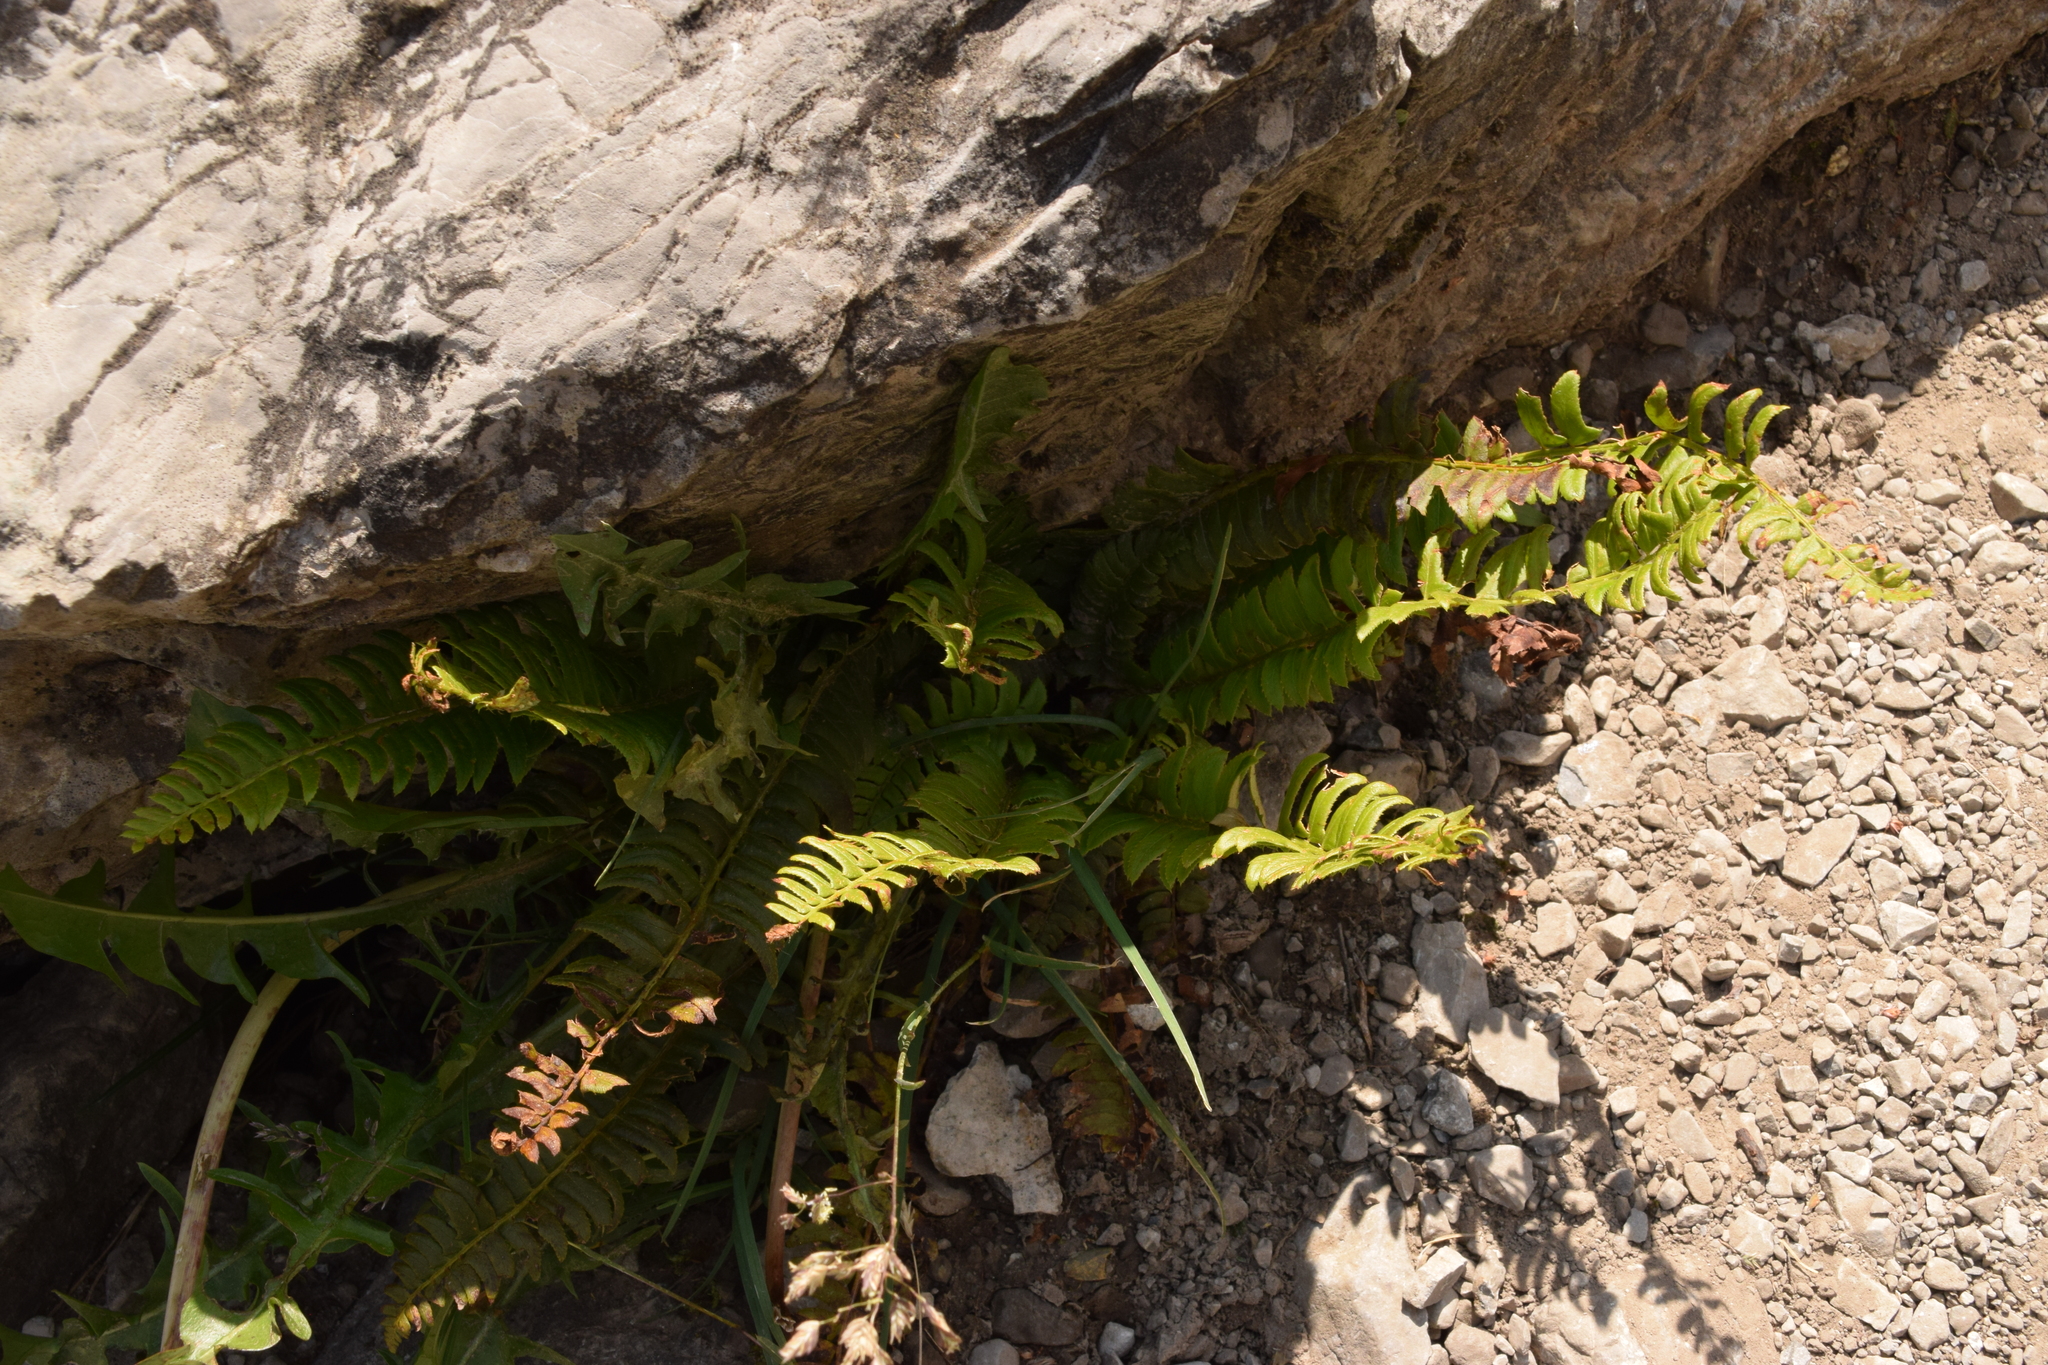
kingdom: Plantae
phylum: Tracheophyta
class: Polypodiopsida
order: Polypodiales
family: Dryopteridaceae
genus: Polystichum
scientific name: Polystichum lonchitis
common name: Holly fern
